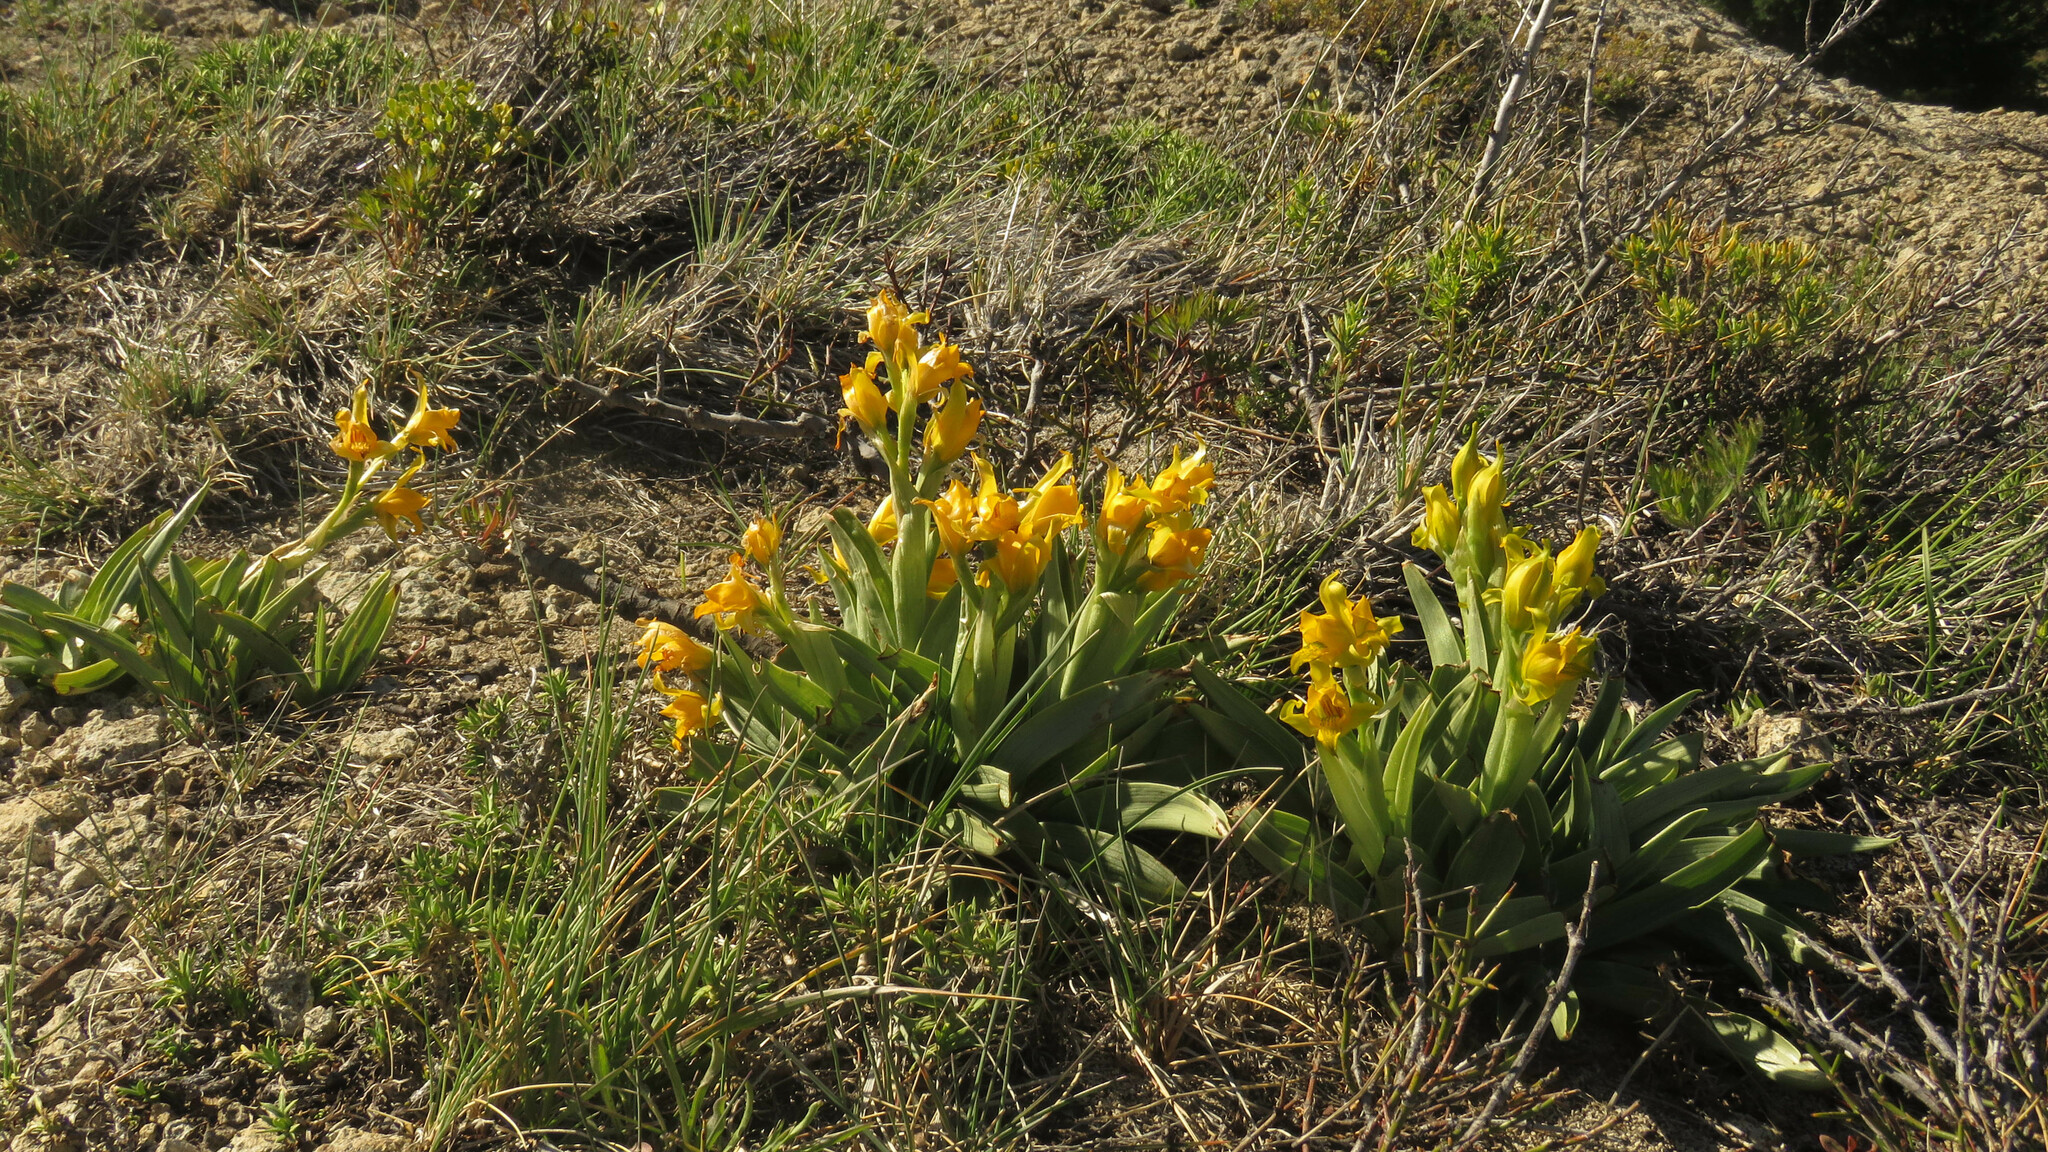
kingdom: Plantae
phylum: Tracheophyta
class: Liliopsida
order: Asparagales
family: Orchidaceae
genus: Chloraea
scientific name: Chloraea alpina
